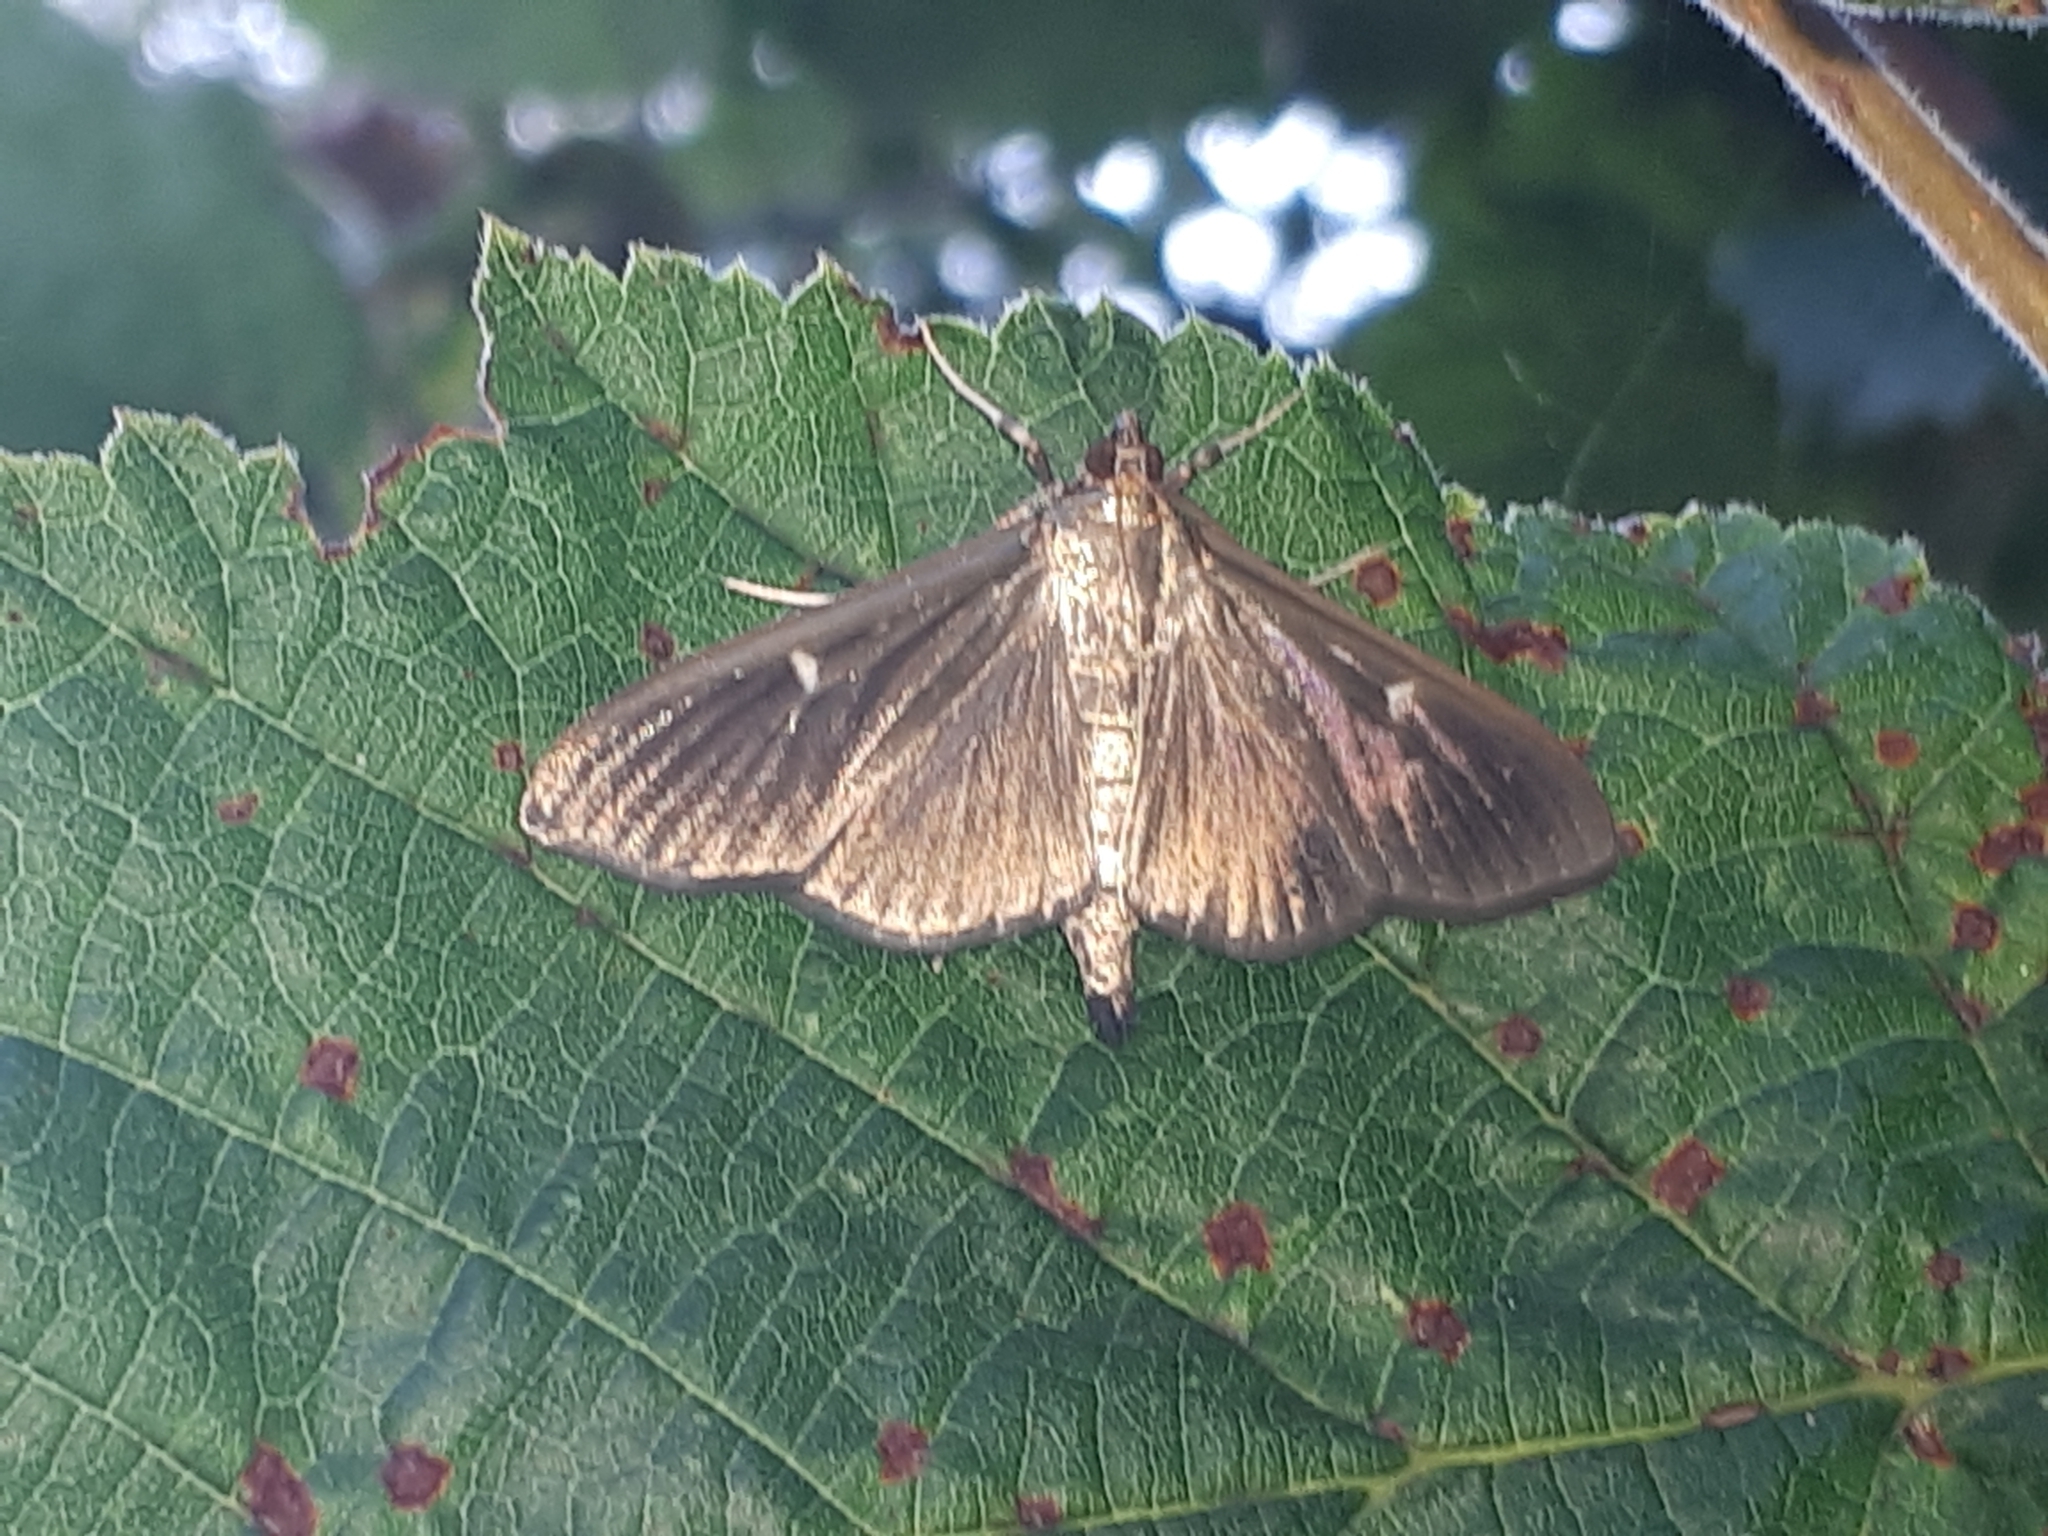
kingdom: Animalia
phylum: Arthropoda
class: Insecta
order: Lepidoptera
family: Crambidae
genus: Cydalima
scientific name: Cydalima perspectalis
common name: Box tree moth
